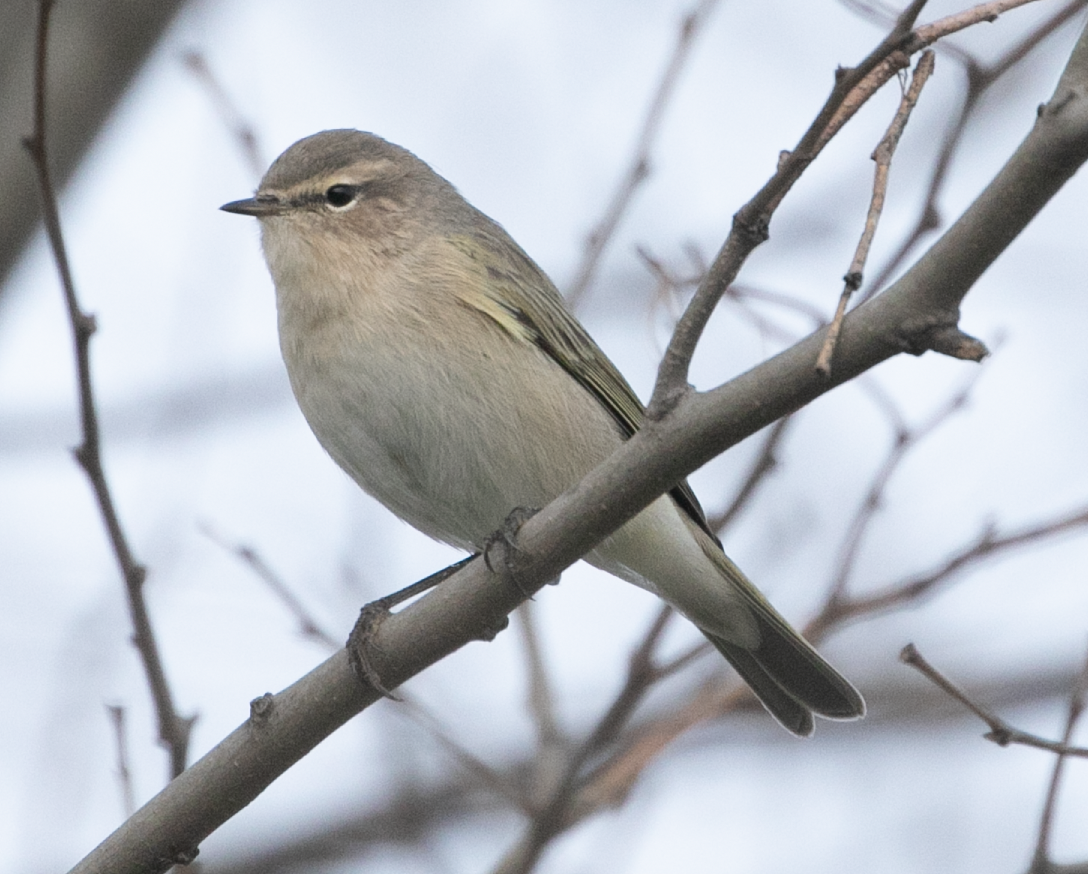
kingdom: Animalia
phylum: Chordata
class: Aves
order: Passeriformes
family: Phylloscopidae
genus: Phylloscopus
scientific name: Phylloscopus collybita
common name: Common chiffchaff
